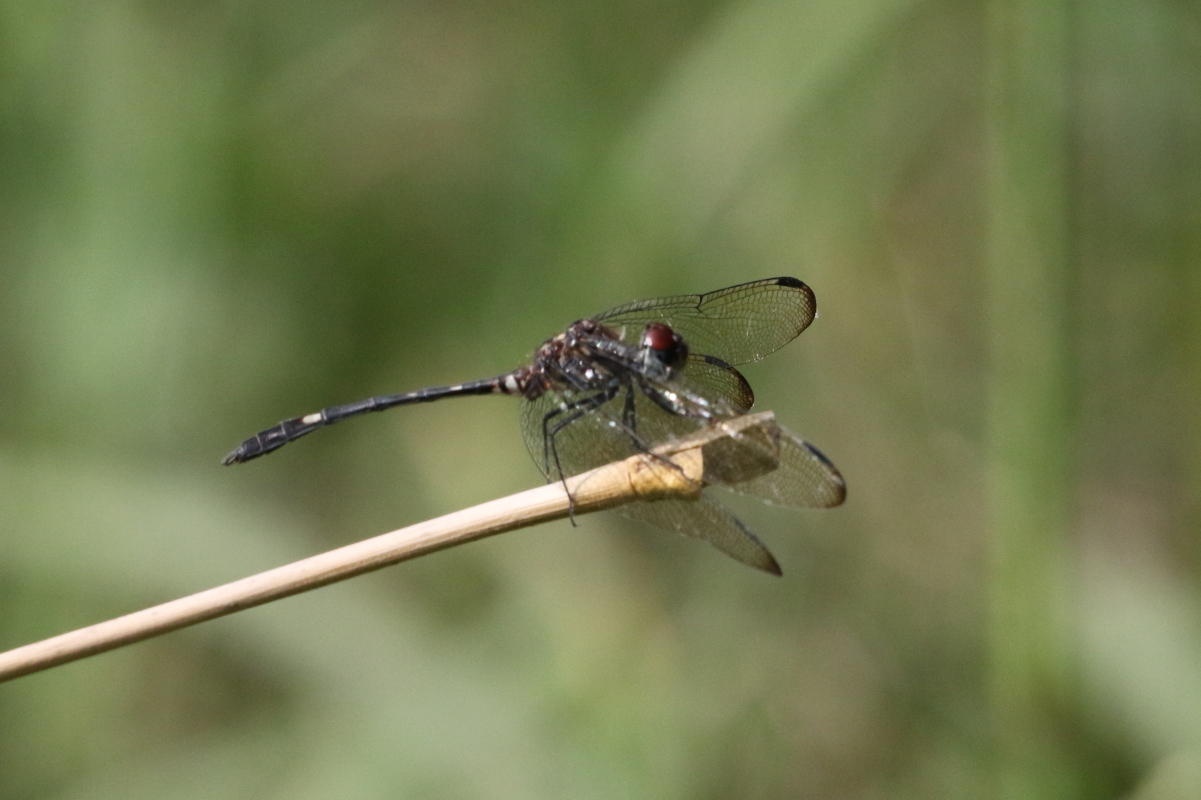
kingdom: Animalia
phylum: Arthropoda
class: Insecta
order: Odonata
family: Libellulidae
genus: Dythemis
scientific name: Dythemis velox
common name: Swift setwing
